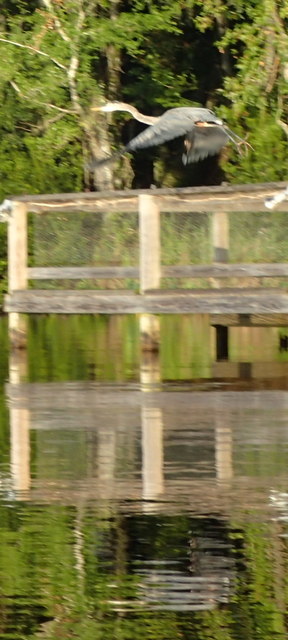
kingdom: Animalia
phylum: Chordata
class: Aves
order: Pelecaniformes
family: Ardeidae
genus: Ardea
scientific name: Ardea herodias
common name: Great blue heron
